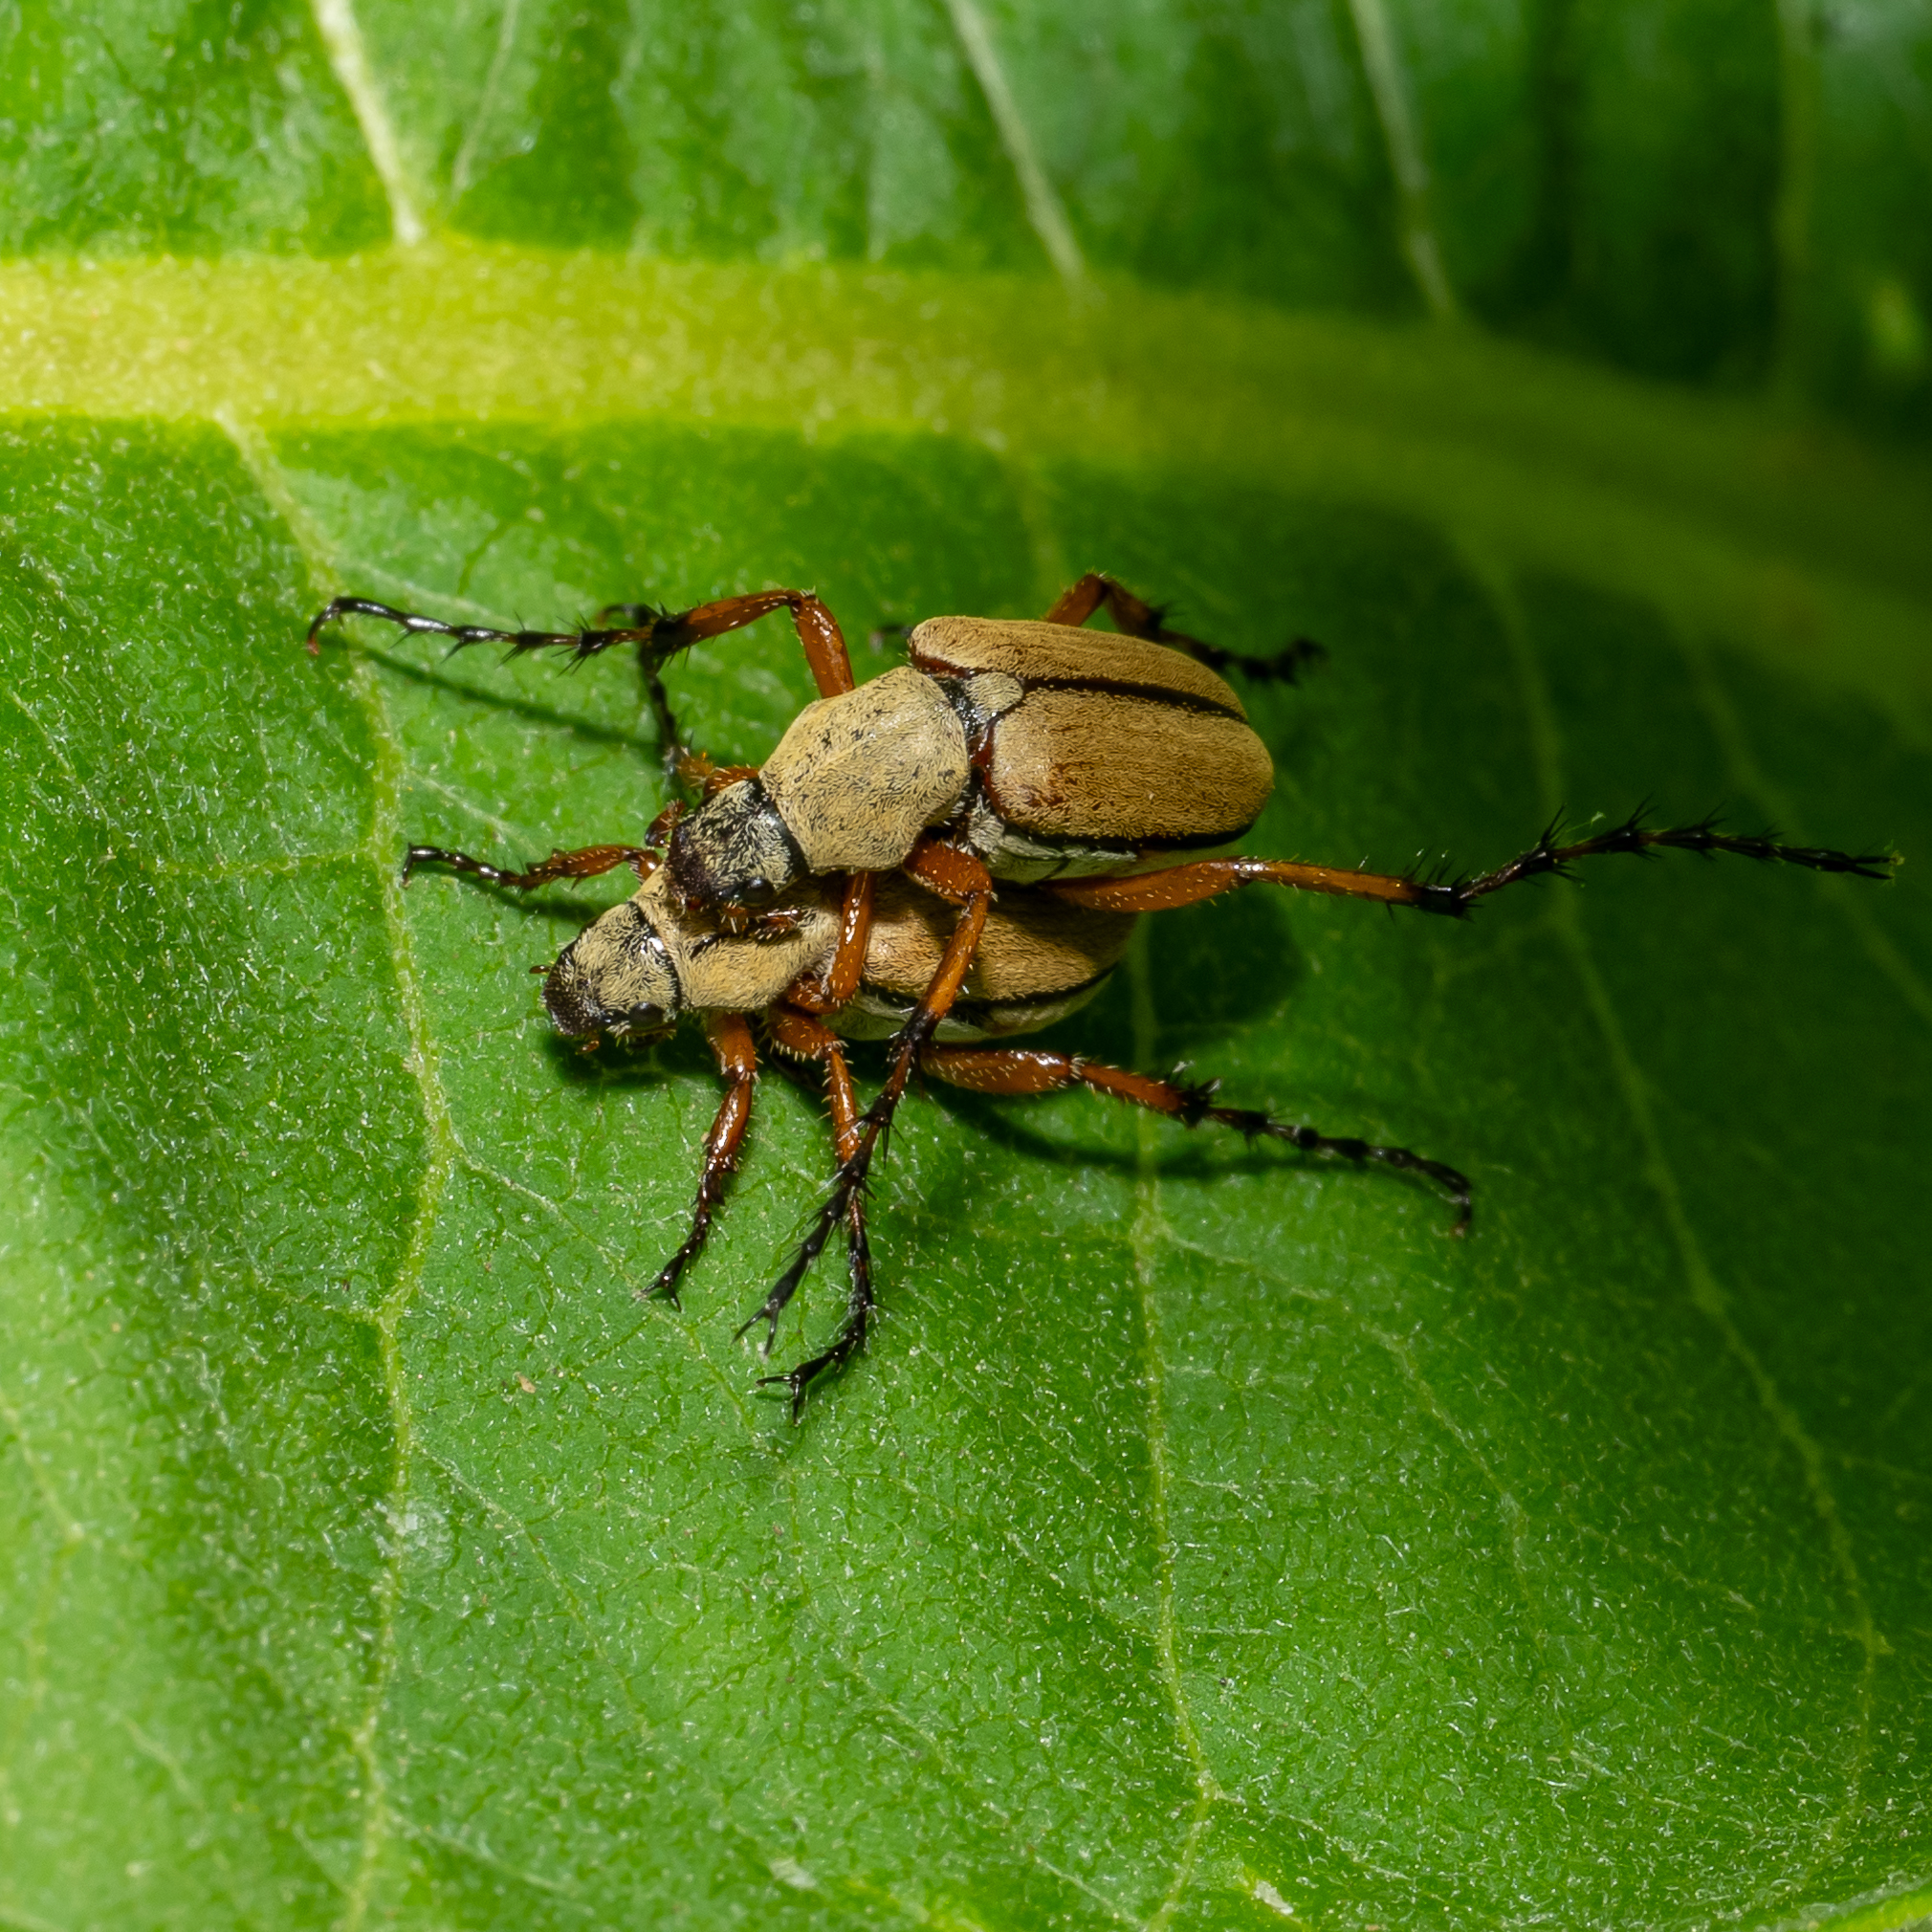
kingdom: Animalia
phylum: Arthropoda
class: Insecta
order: Coleoptera
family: Scarabaeidae
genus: Macrodactylus
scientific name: Macrodactylus subspinosus
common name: American rose chafer
